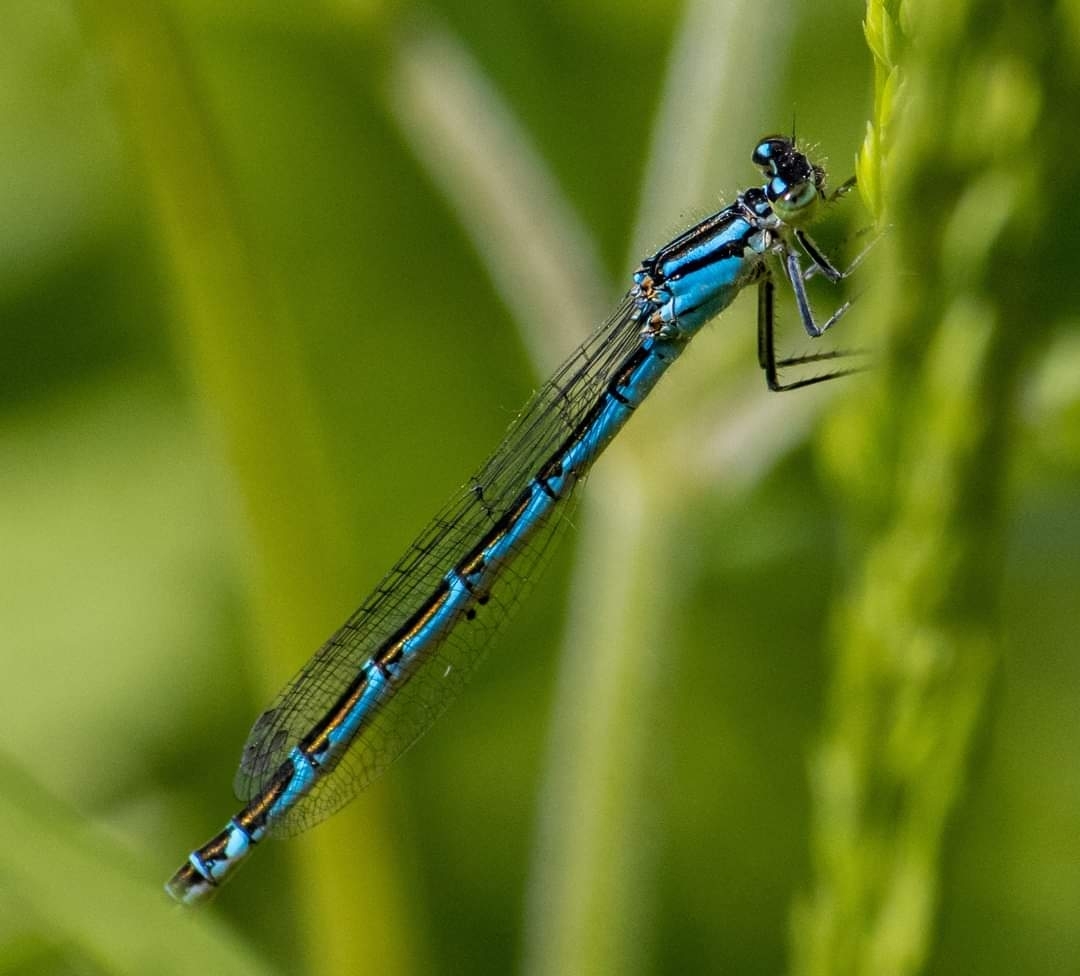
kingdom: Animalia
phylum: Arthropoda
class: Insecta
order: Odonata
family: Coenagrionidae
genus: Enallagma
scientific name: Enallagma cyathigerum
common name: Common blue damselfly
